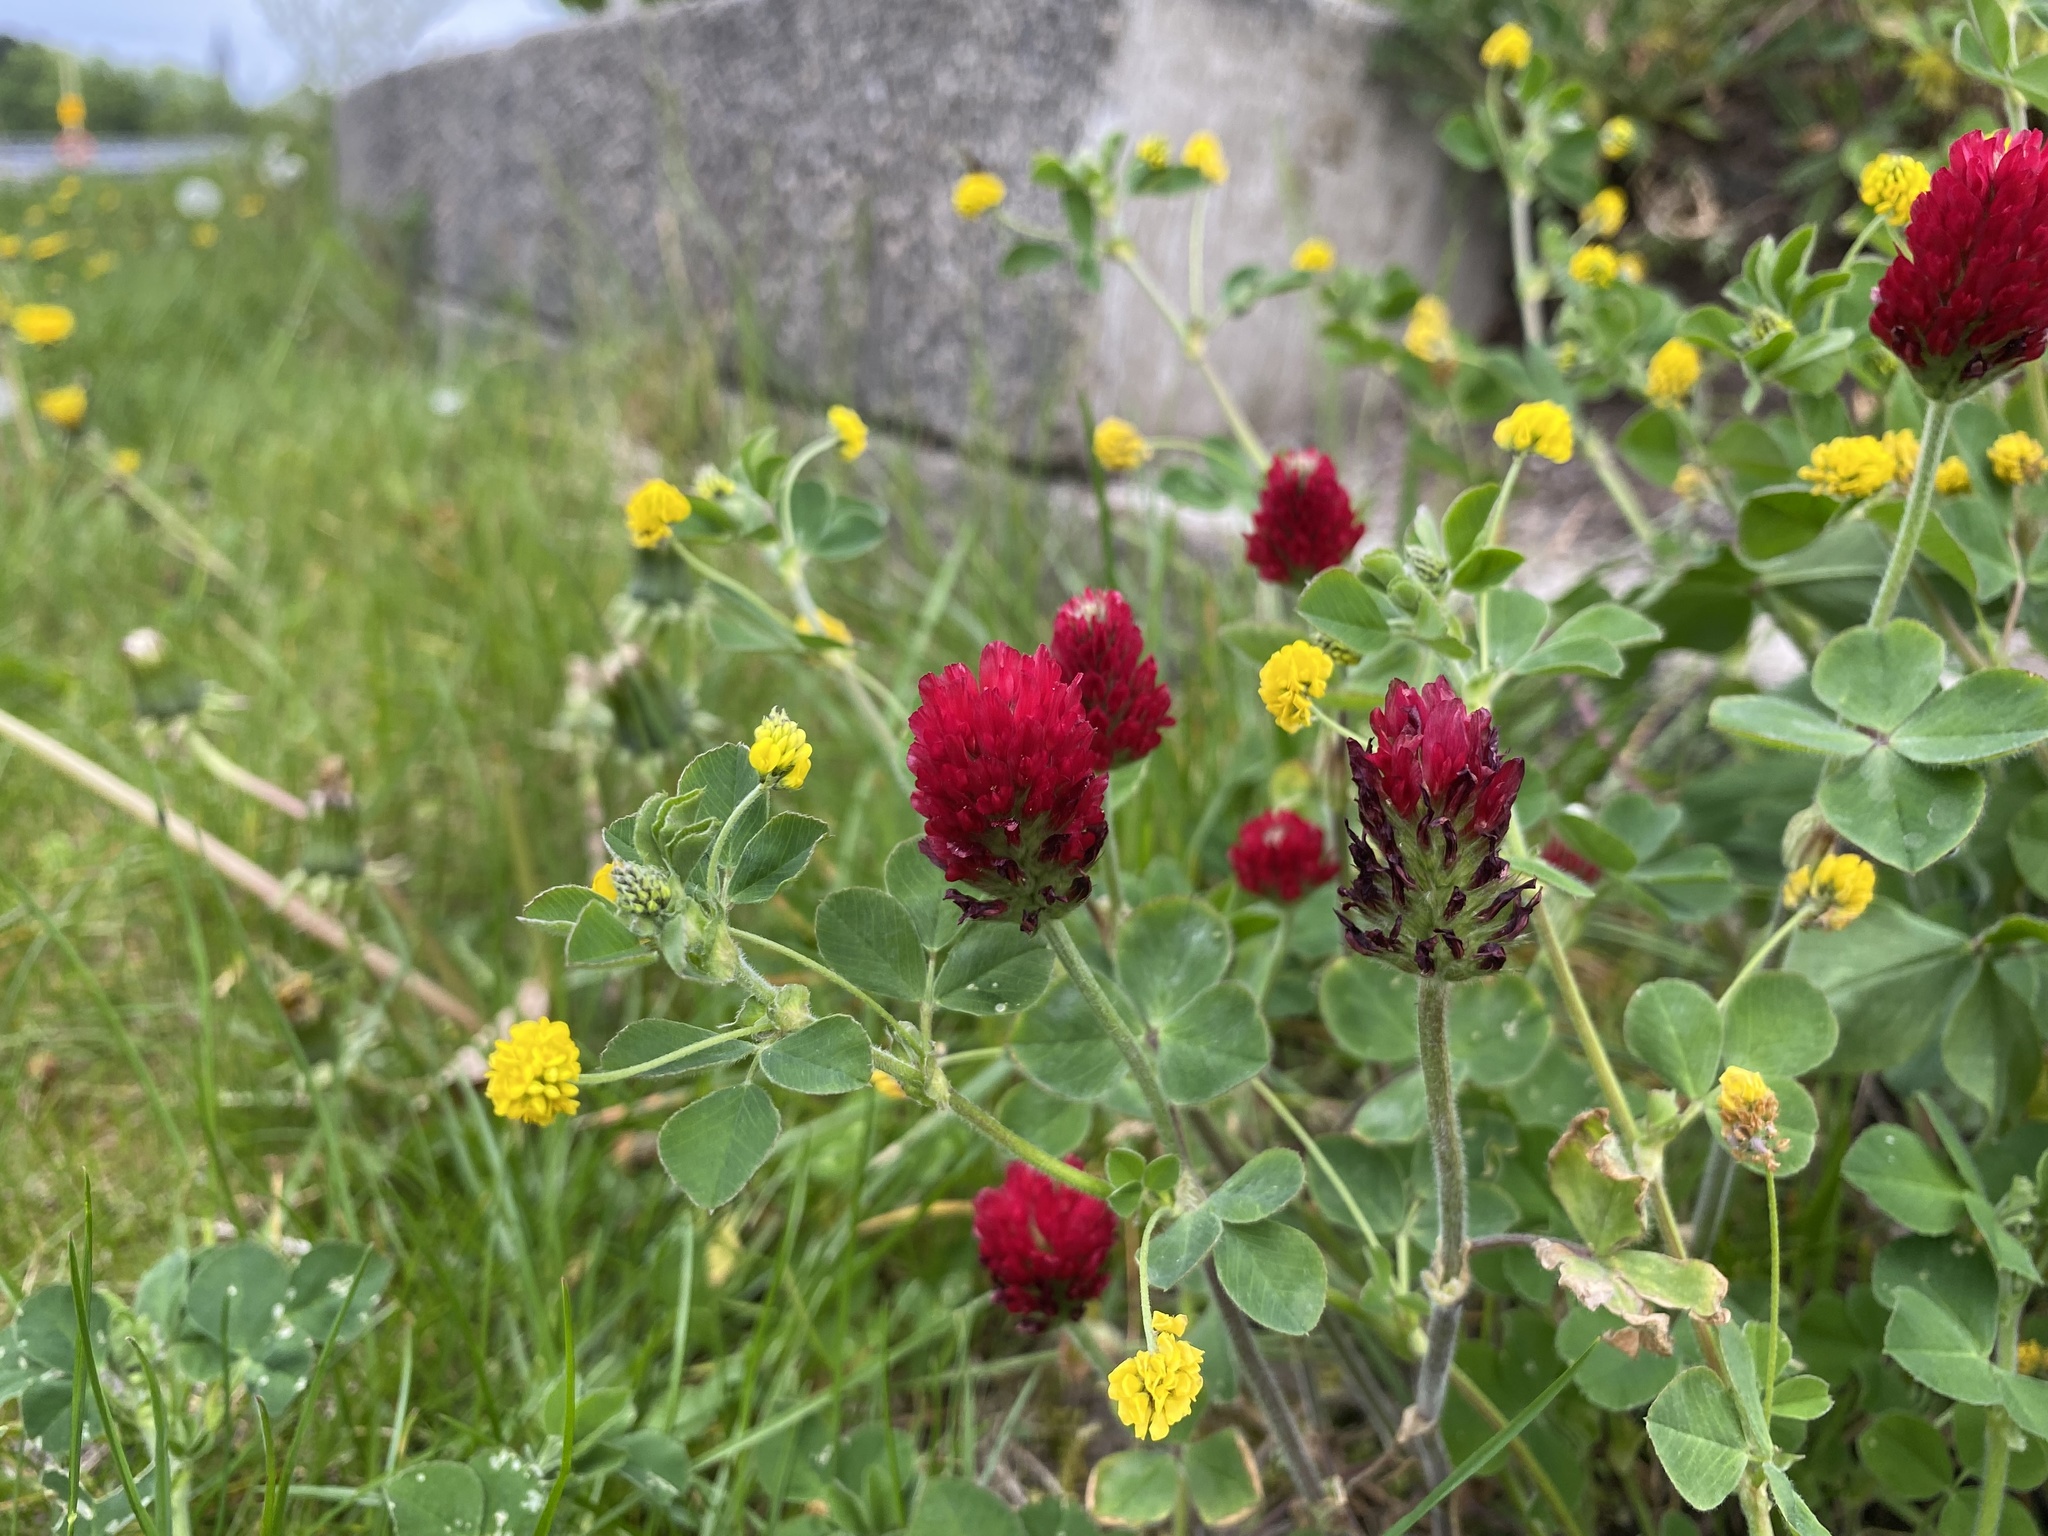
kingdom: Plantae
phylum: Tracheophyta
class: Magnoliopsida
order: Fabales
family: Fabaceae
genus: Trifolium
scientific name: Trifolium incarnatum
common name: Crimson clover
